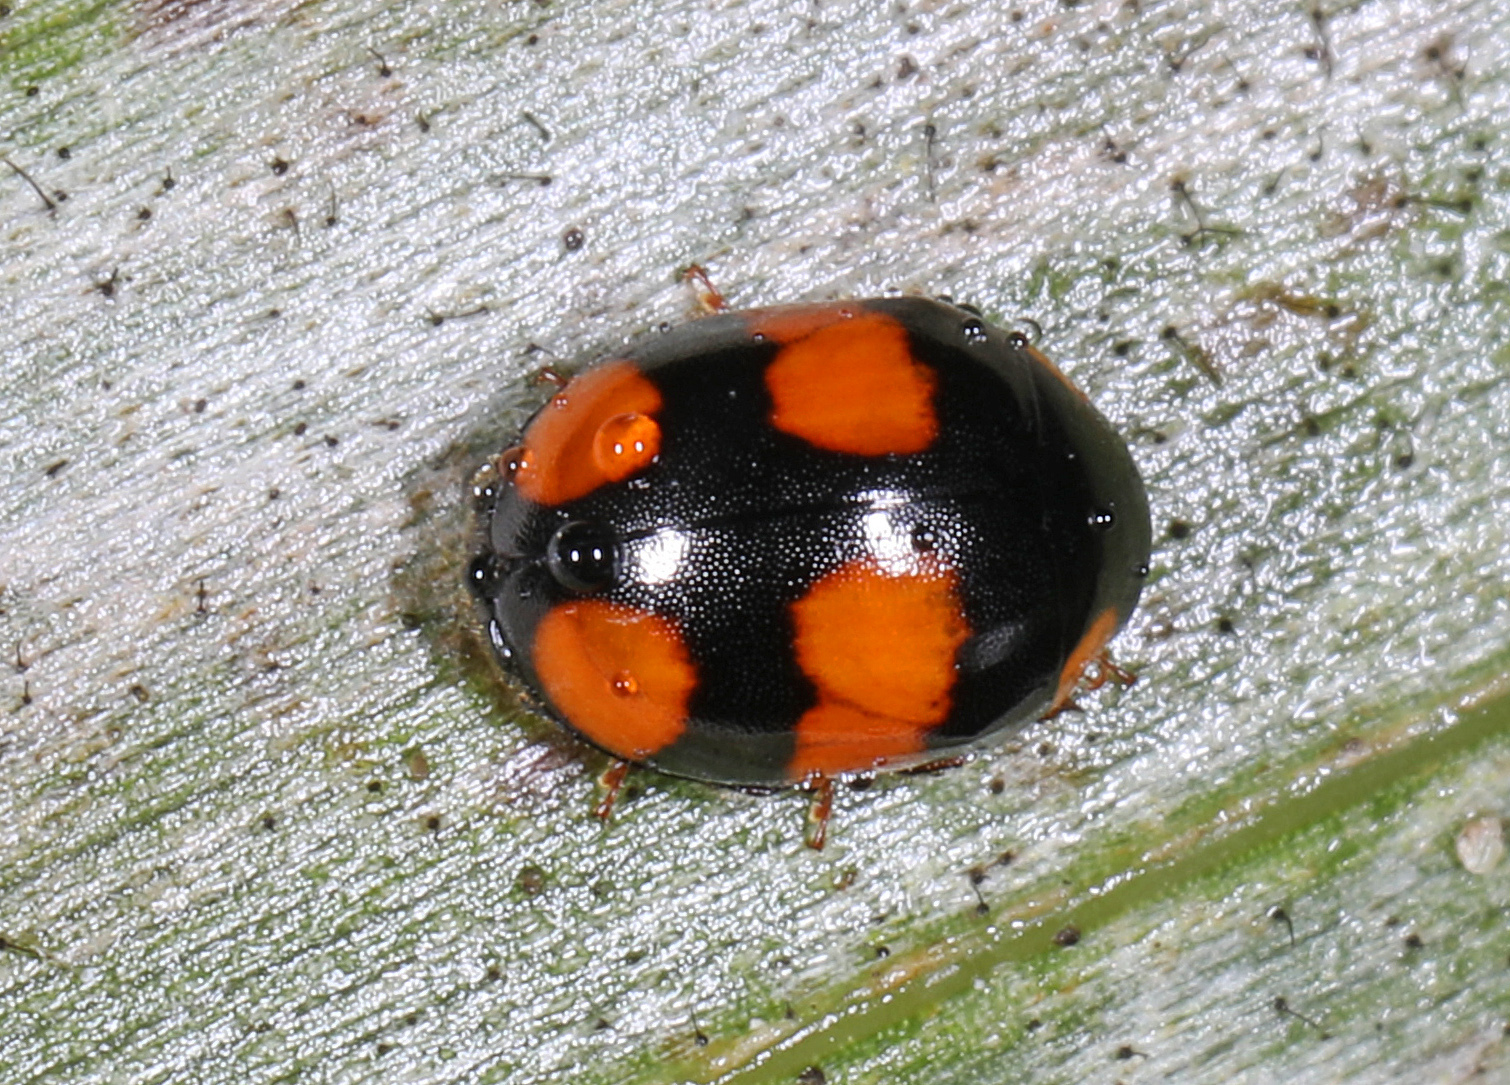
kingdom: Animalia
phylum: Arthropoda
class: Insecta
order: Coleoptera
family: Coccinellidae
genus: Brachiacantha
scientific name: Brachiacantha dentipes
